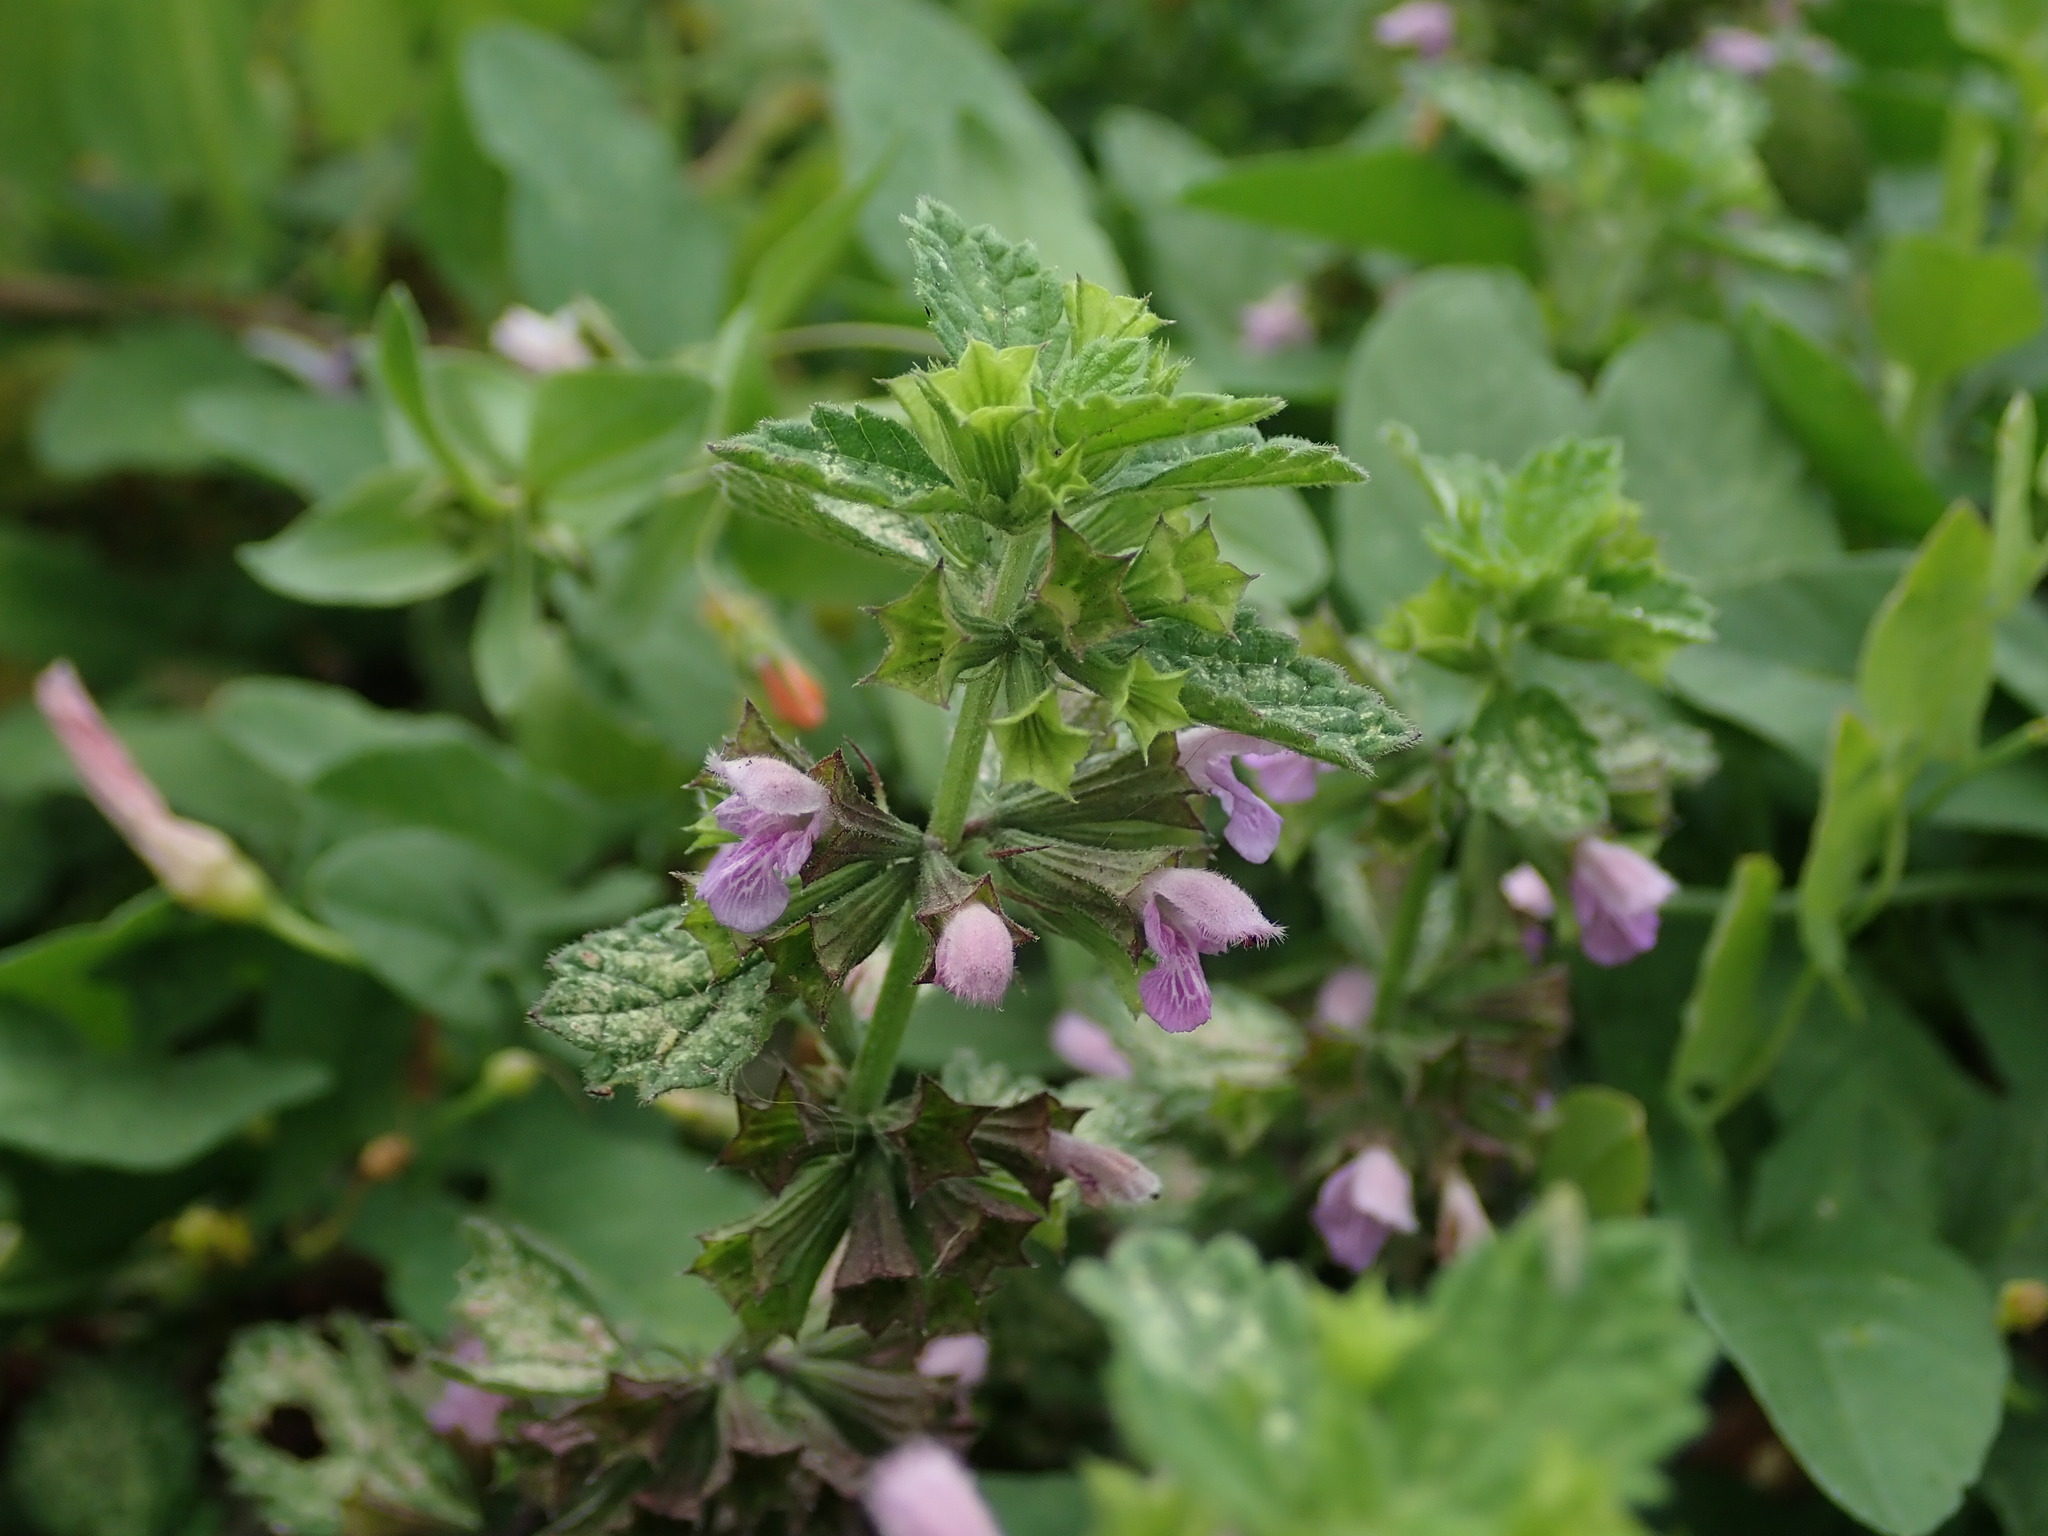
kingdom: Plantae
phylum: Tracheophyta
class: Magnoliopsida
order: Lamiales
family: Lamiaceae
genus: Ballota
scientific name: Ballota nigra
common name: Black horehound
